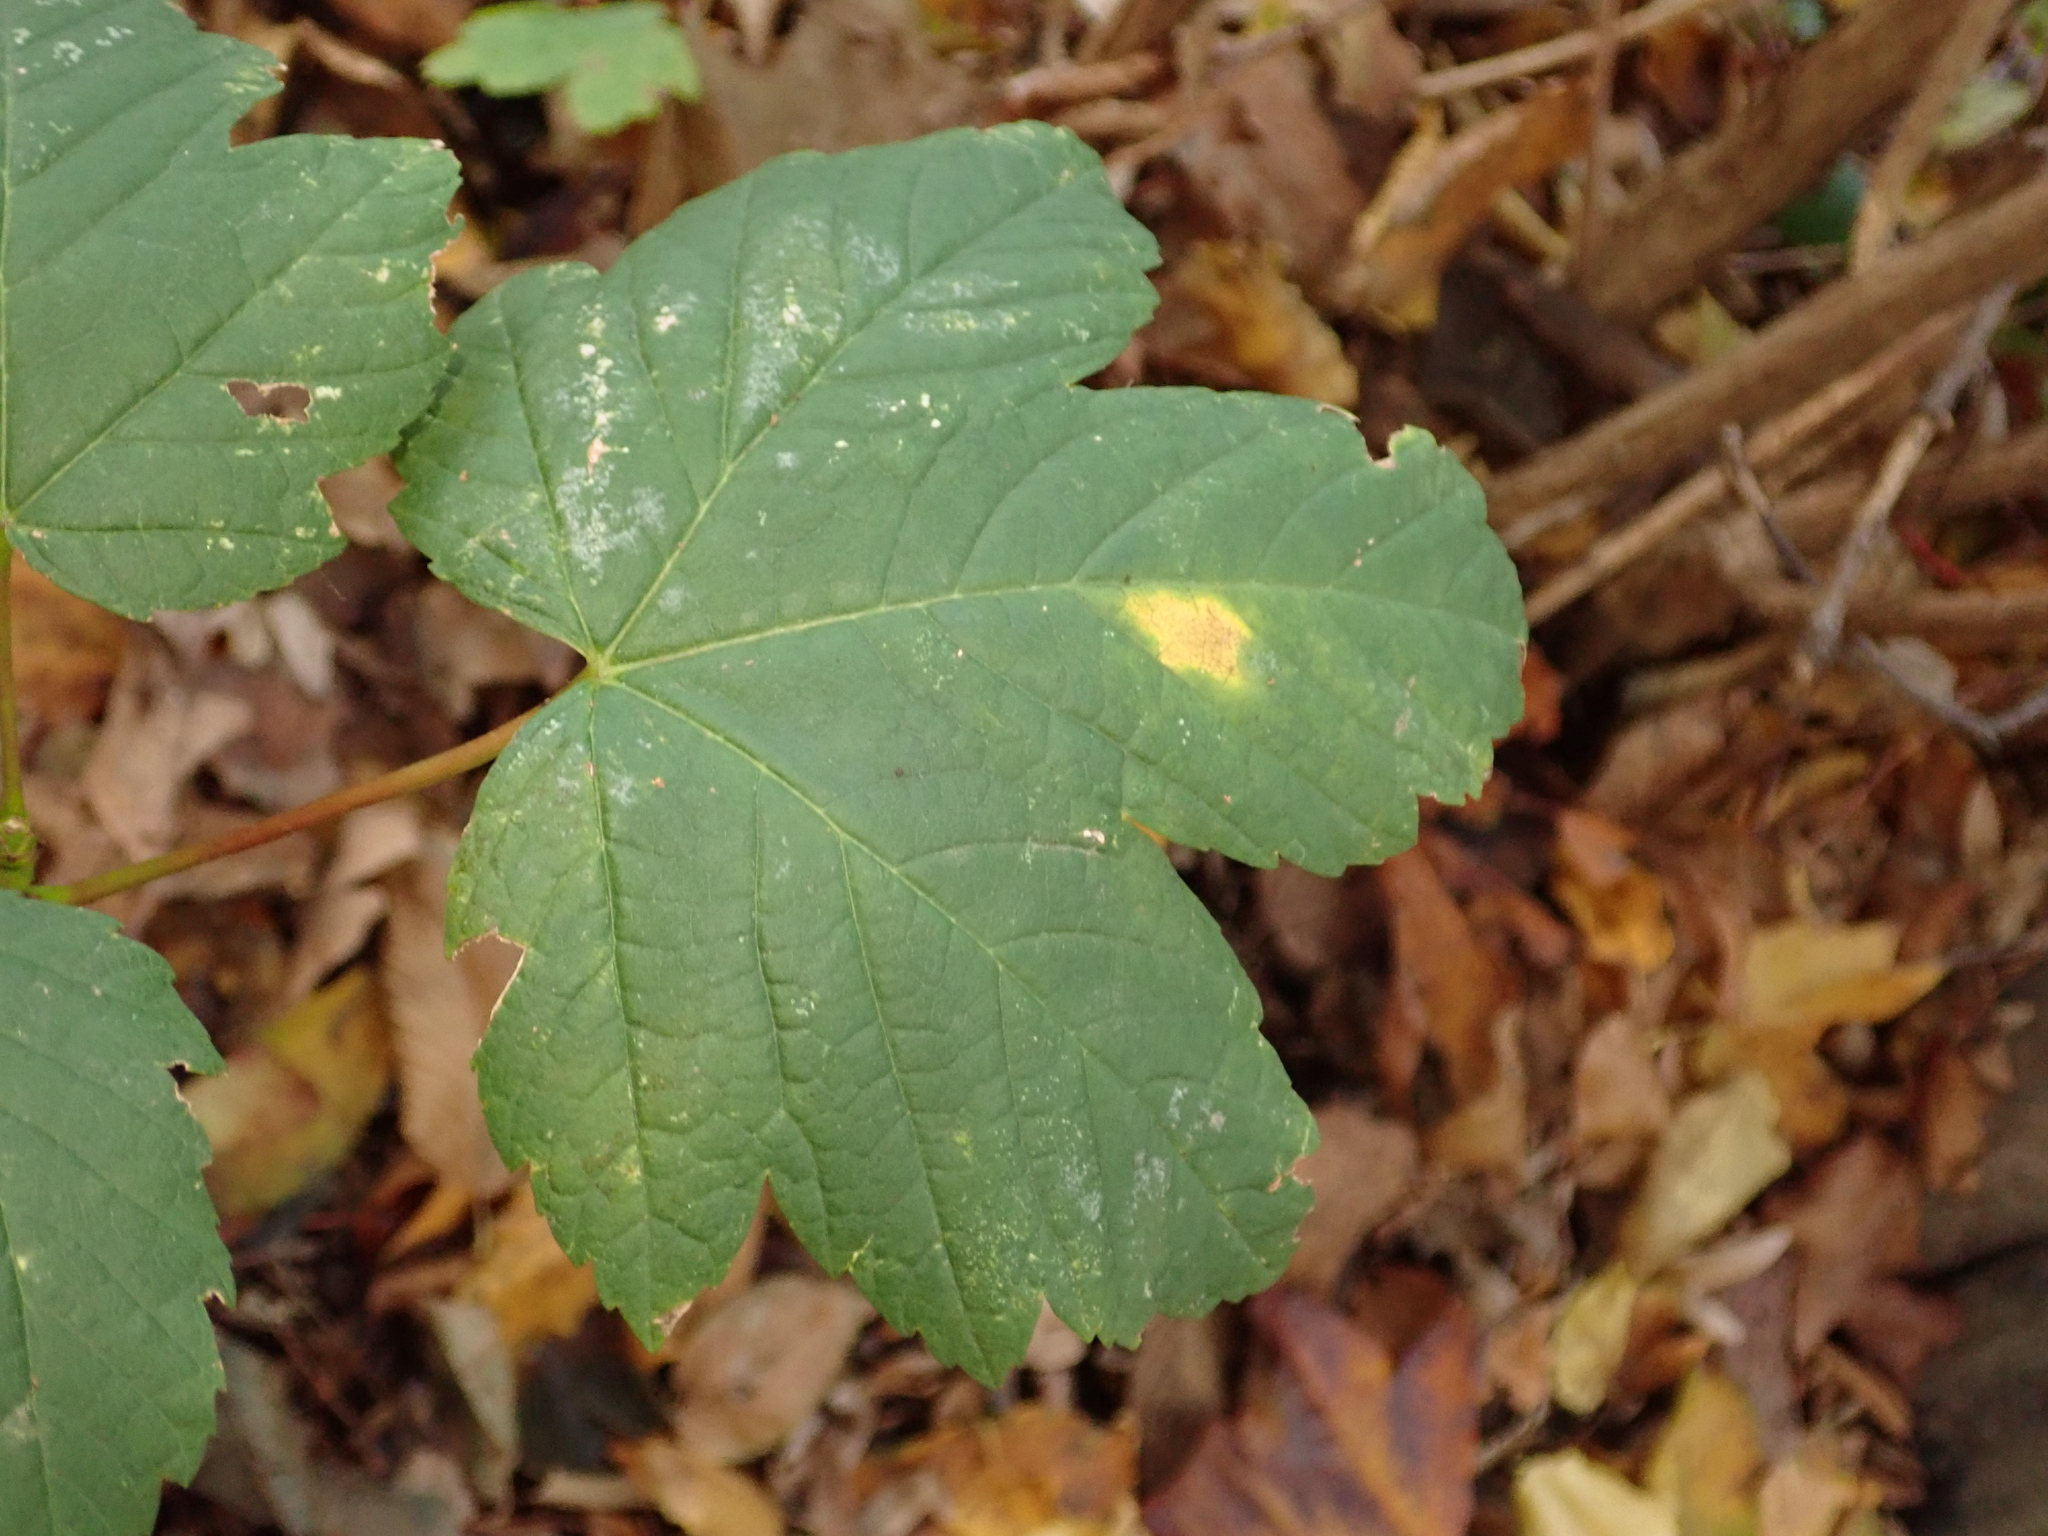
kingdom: Plantae
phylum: Tracheophyta
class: Magnoliopsida
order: Sapindales
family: Sapindaceae
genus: Acer
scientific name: Acer pseudoplatanus
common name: Sycamore
